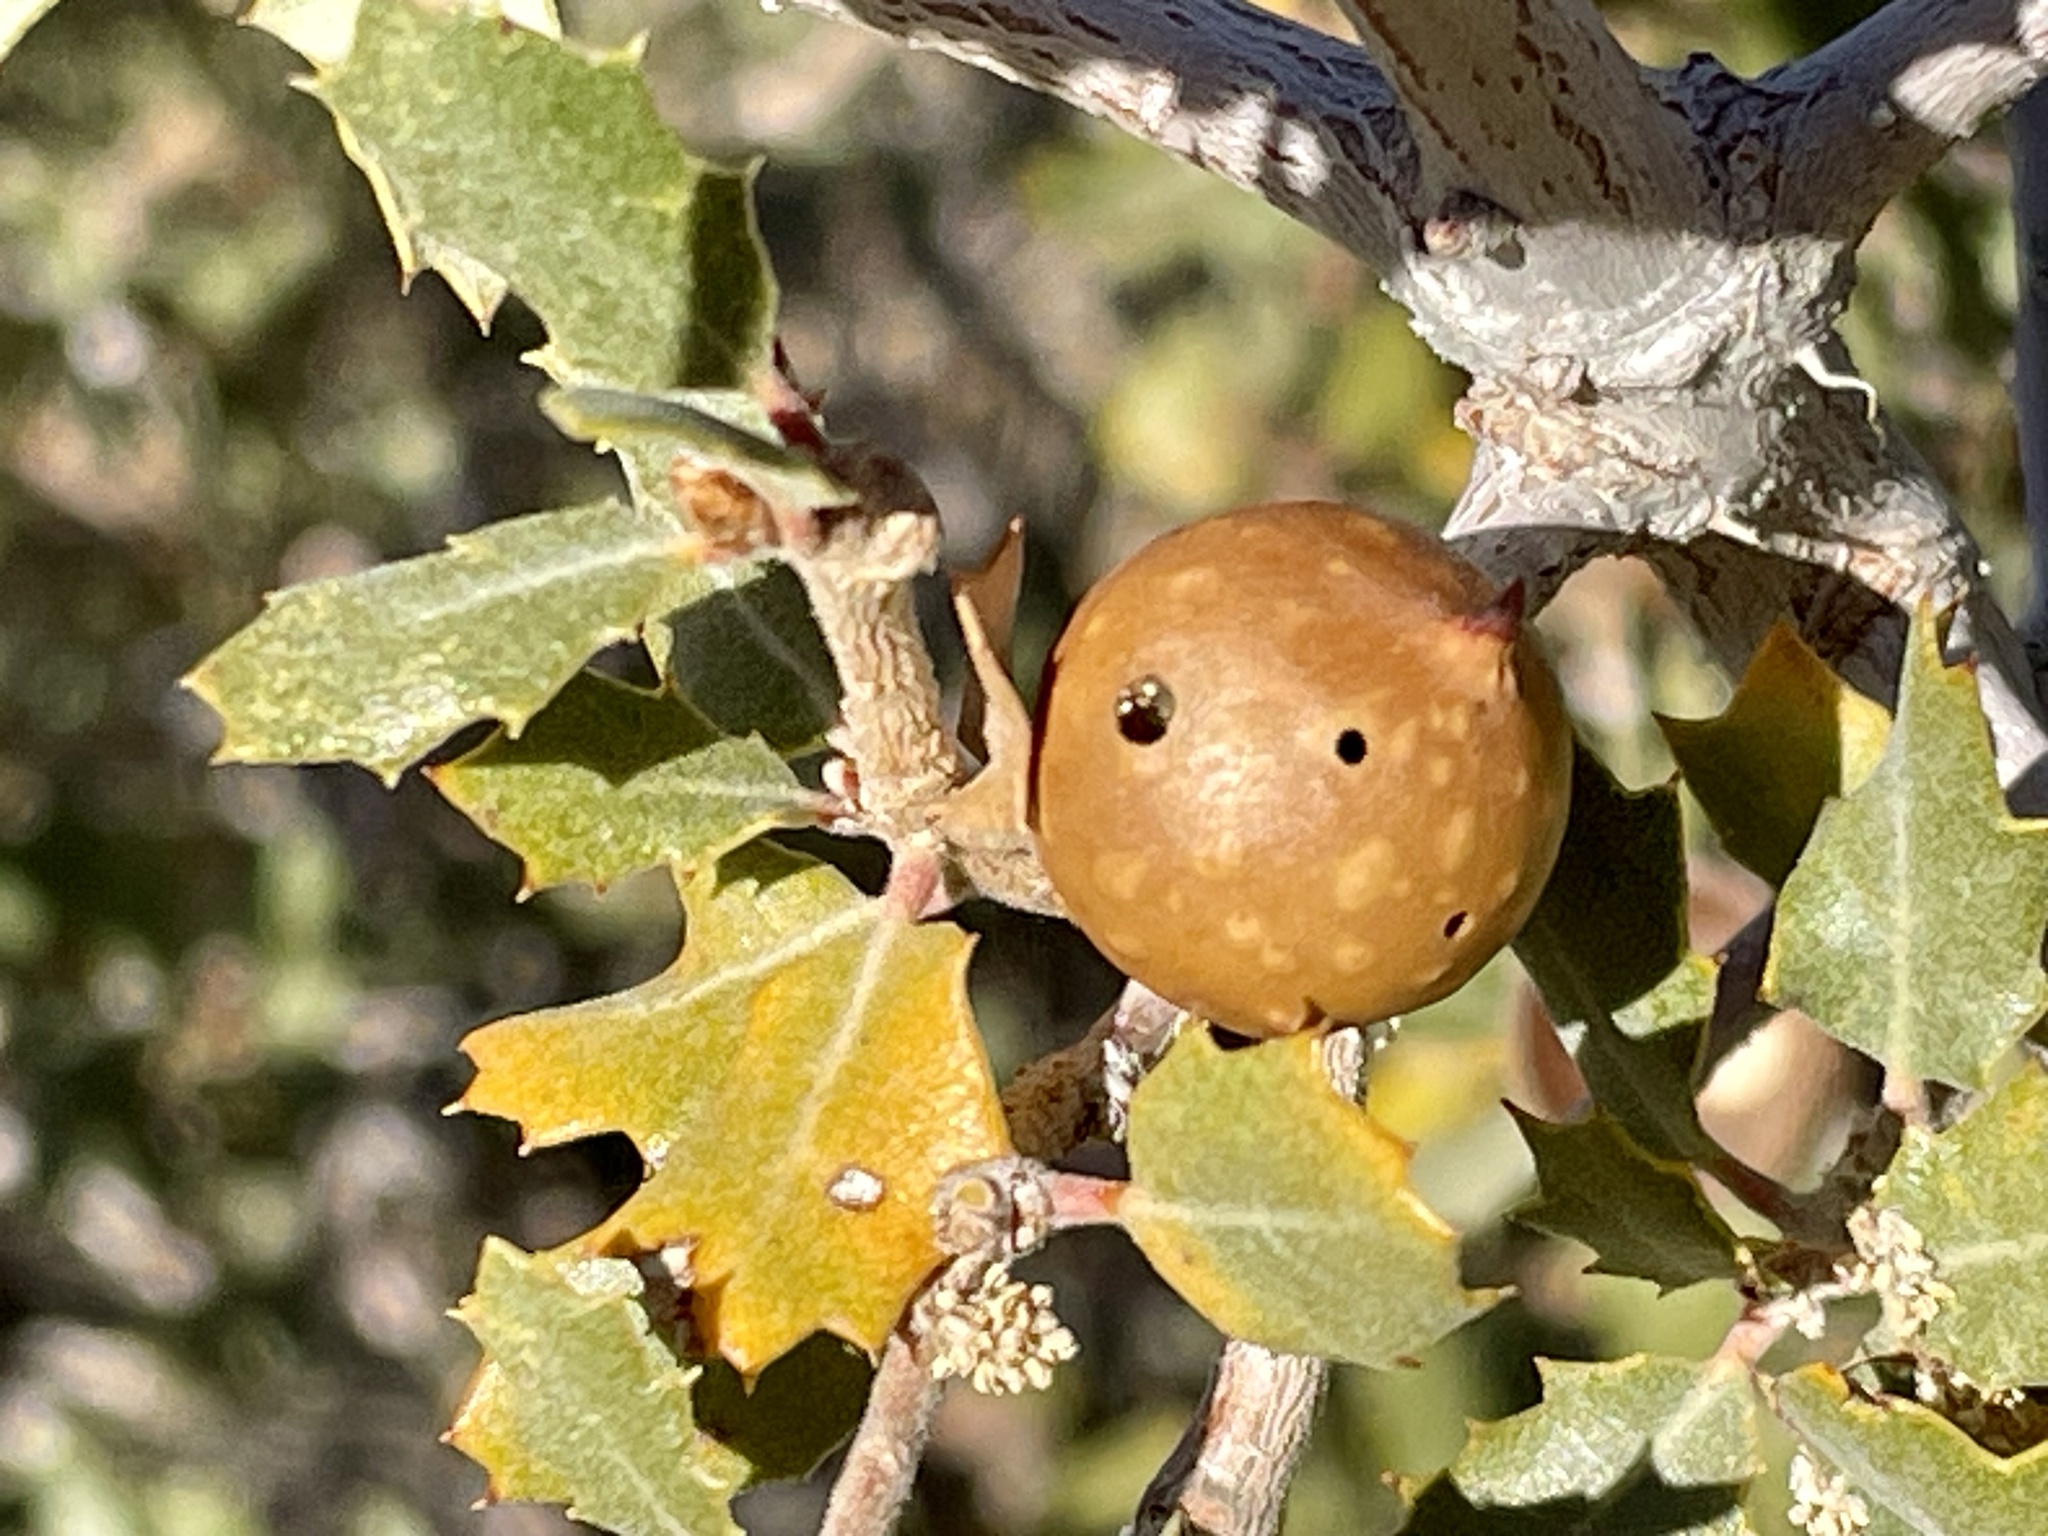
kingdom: Animalia
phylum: Arthropoda
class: Insecta
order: Hymenoptera
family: Cynipidae
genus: Burnettweldia
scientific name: Burnettweldia
